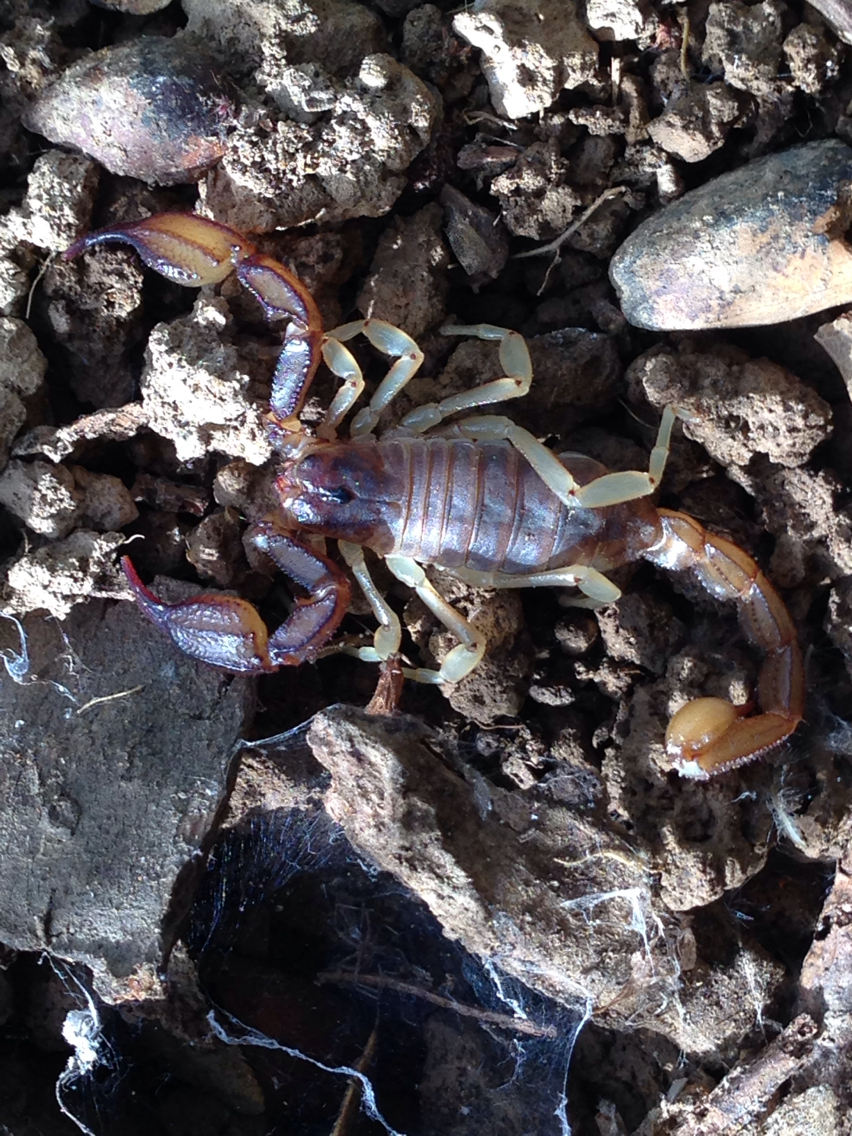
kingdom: Animalia
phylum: Arthropoda
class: Arachnida
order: Scorpiones
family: Chactidae
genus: Uroctonus
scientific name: Uroctonus mordax
